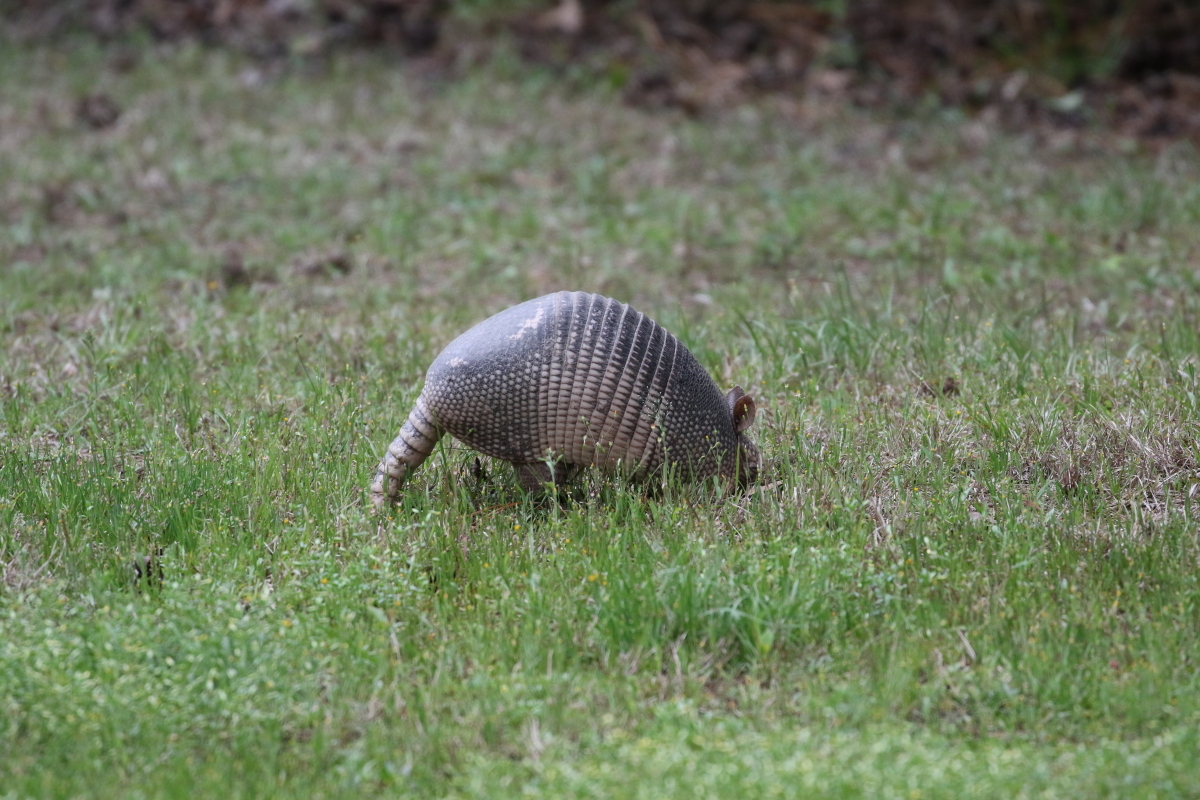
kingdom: Animalia
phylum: Chordata
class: Mammalia
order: Cingulata
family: Dasypodidae
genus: Dasypus
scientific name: Dasypus novemcinctus
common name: Nine-banded armadillo
